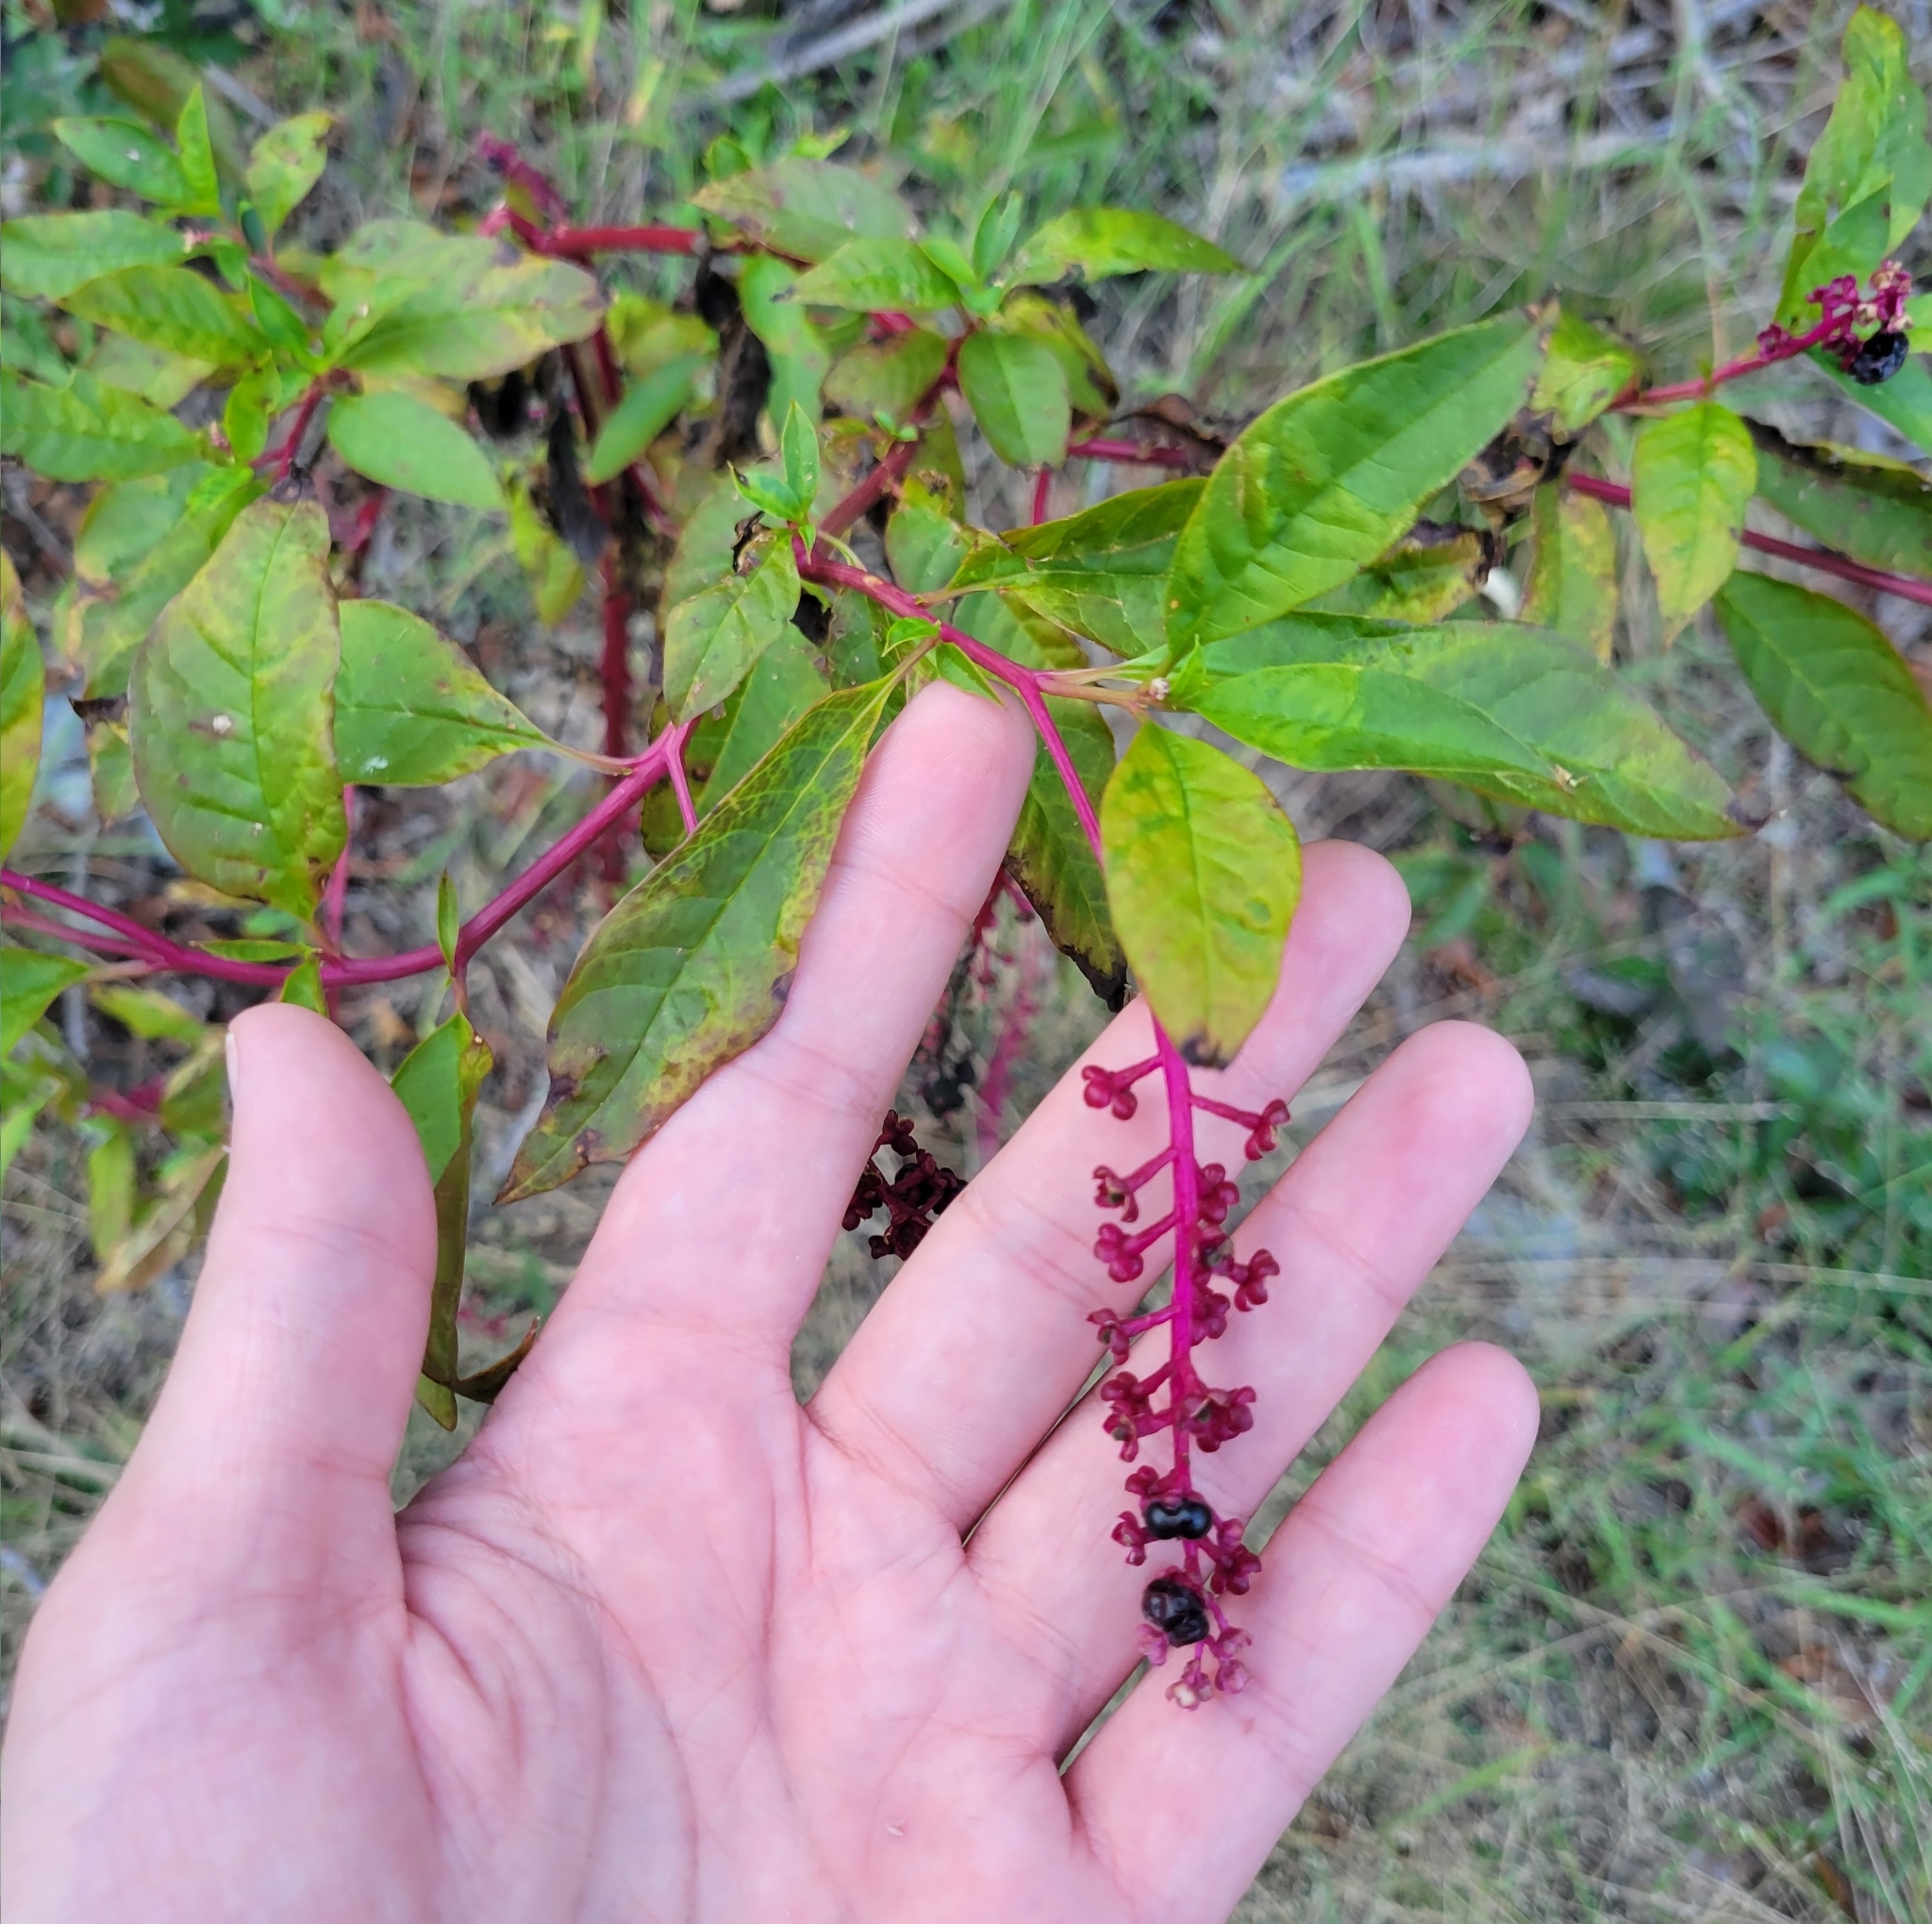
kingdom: Plantae
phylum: Tracheophyta
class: Magnoliopsida
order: Caryophyllales
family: Phytolaccaceae
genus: Phytolacca
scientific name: Phytolacca americana
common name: American pokeweed
